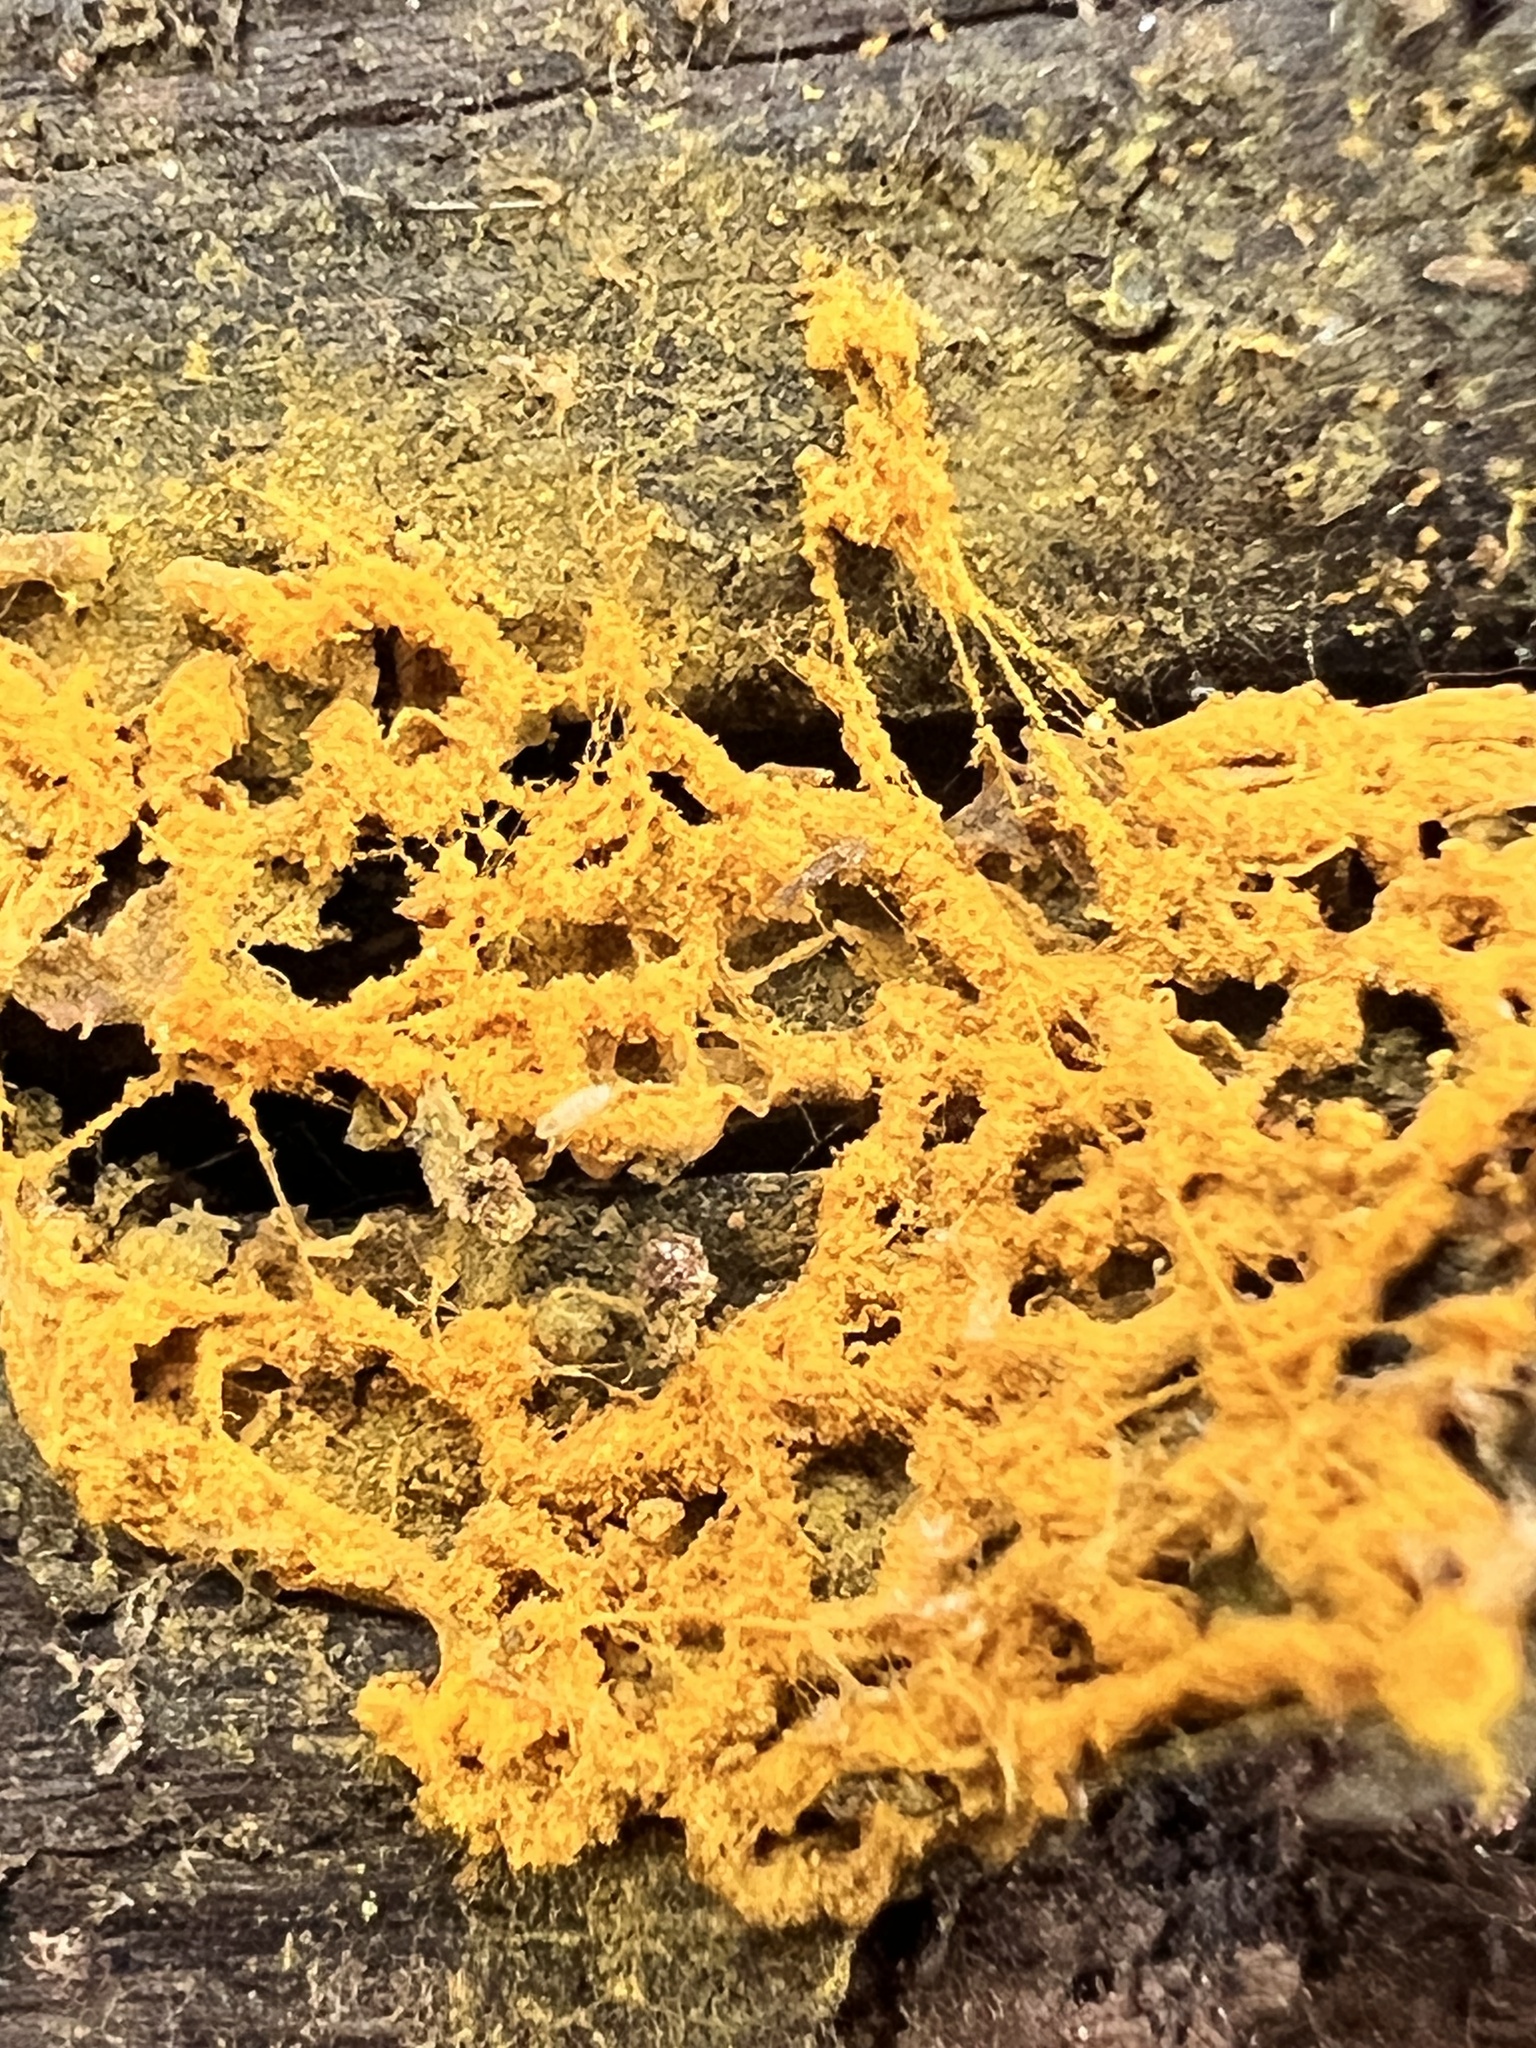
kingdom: Protozoa
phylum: Mycetozoa
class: Myxomycetes
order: Trichiales
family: Arcyriaceae
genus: Hemitrichia
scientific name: Hemitrichia serpula
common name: Pretzel slime mold
